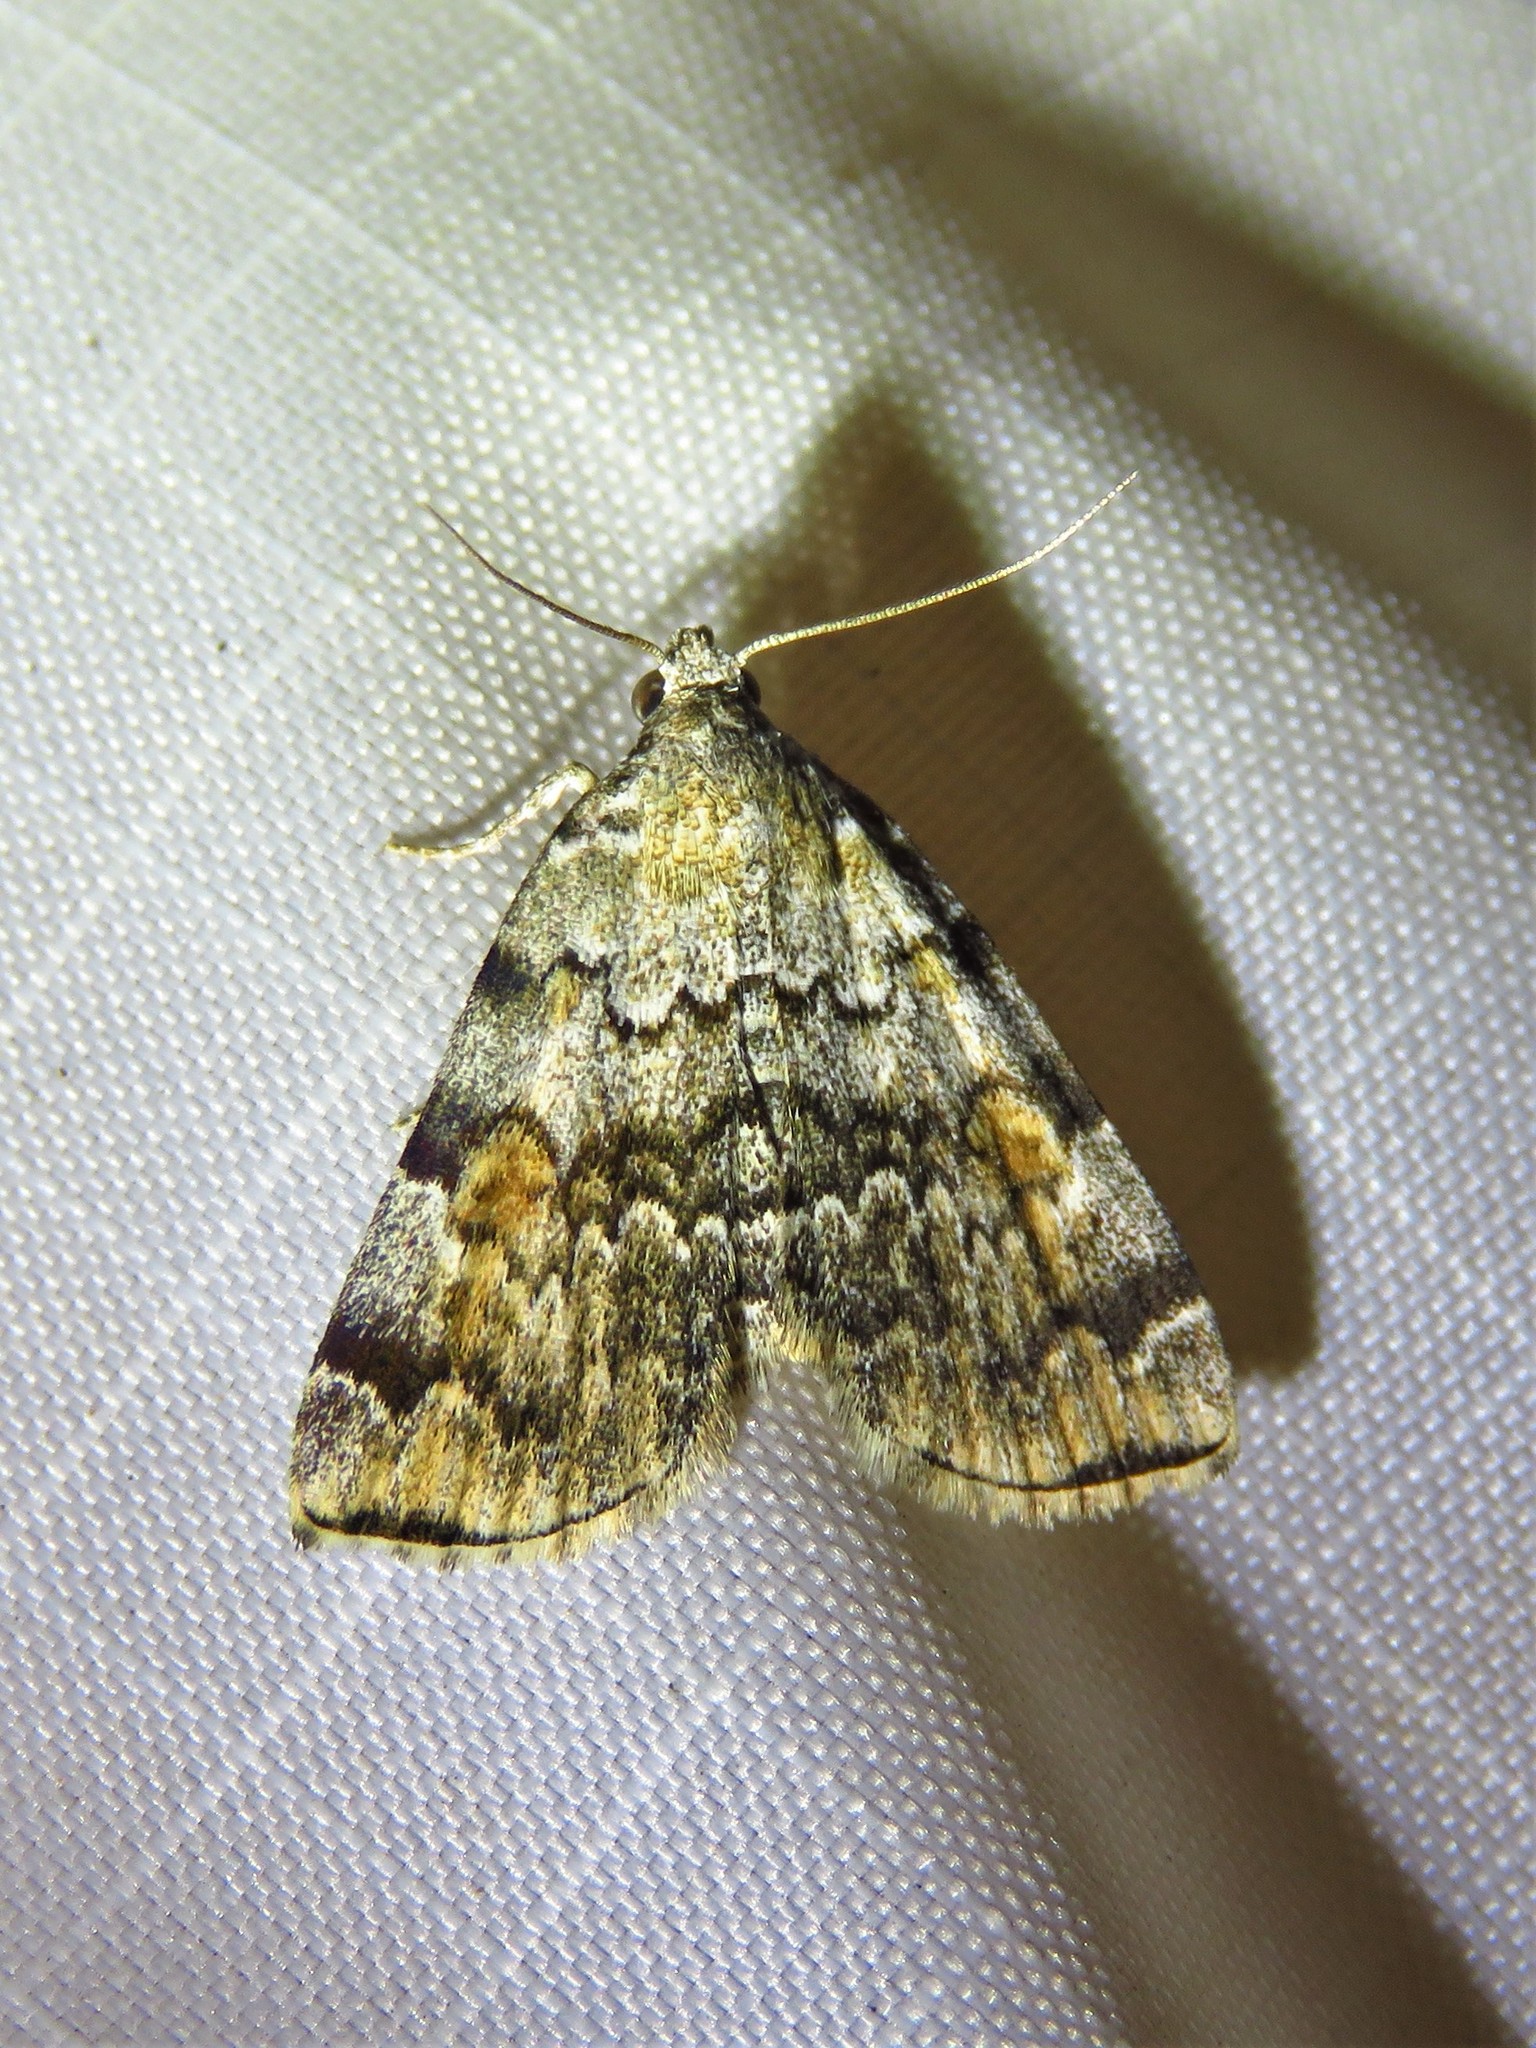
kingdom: Animalia
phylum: Arthropoda
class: Insecta
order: Lepidoptera
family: Erebidae
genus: Idia
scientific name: Idia americalis
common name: American idia moth
